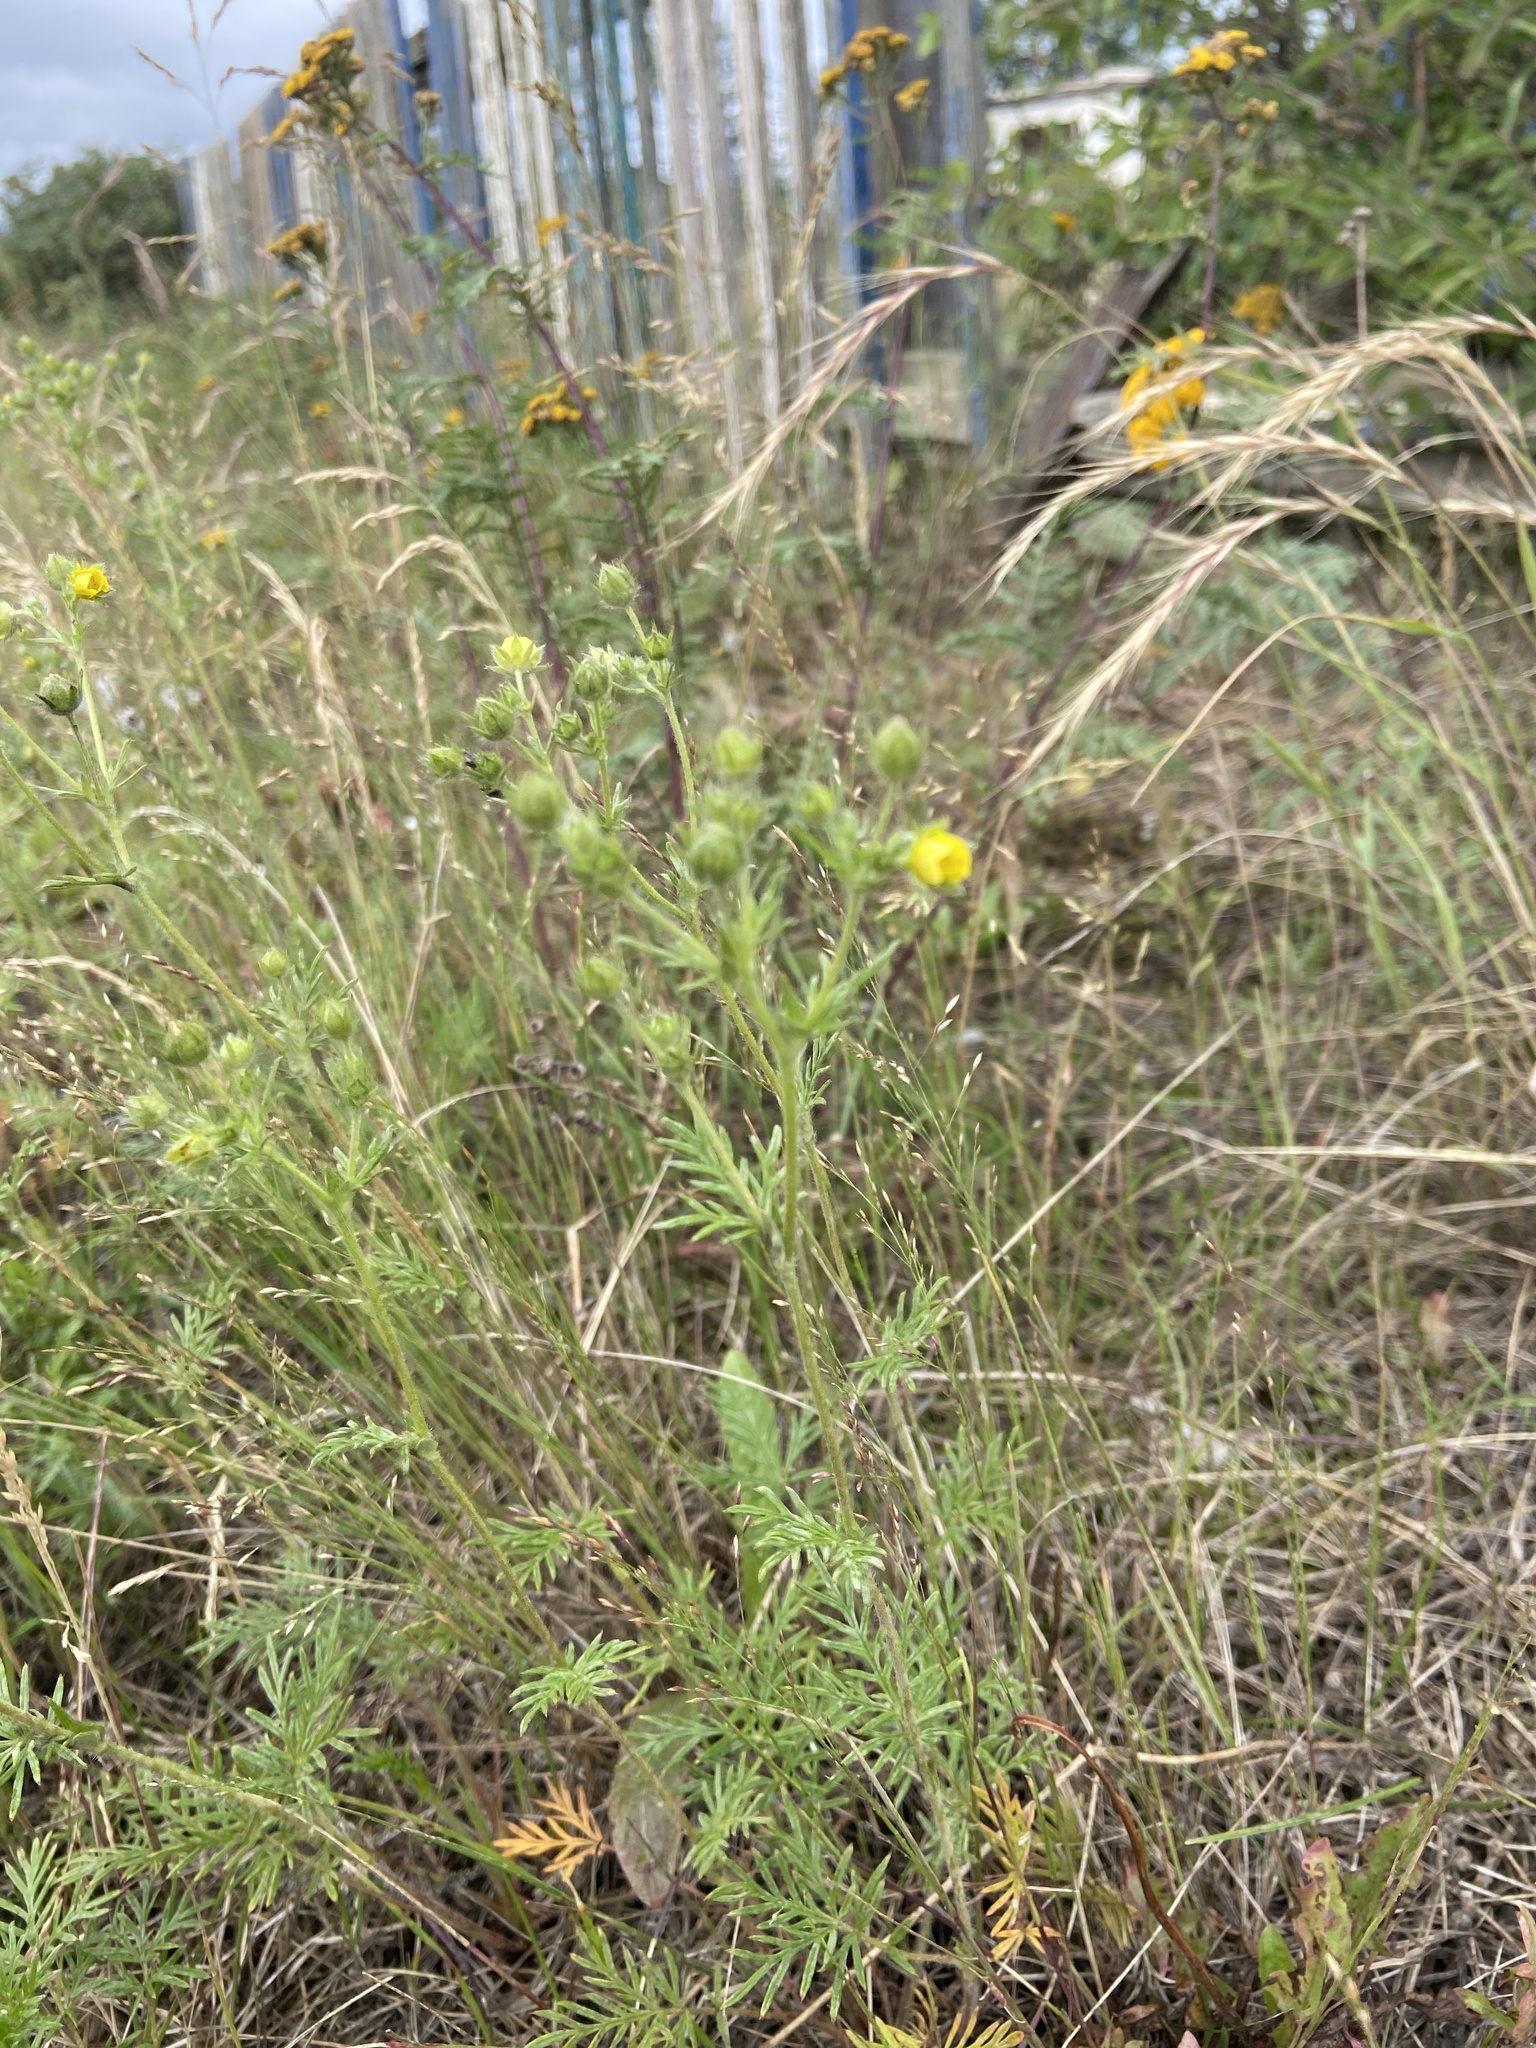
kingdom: Plantae
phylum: Tracheophyta
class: Magnoliopsida
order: Rosales
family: Rosaceae
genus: Potentilla
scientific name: Potentilla multifida
